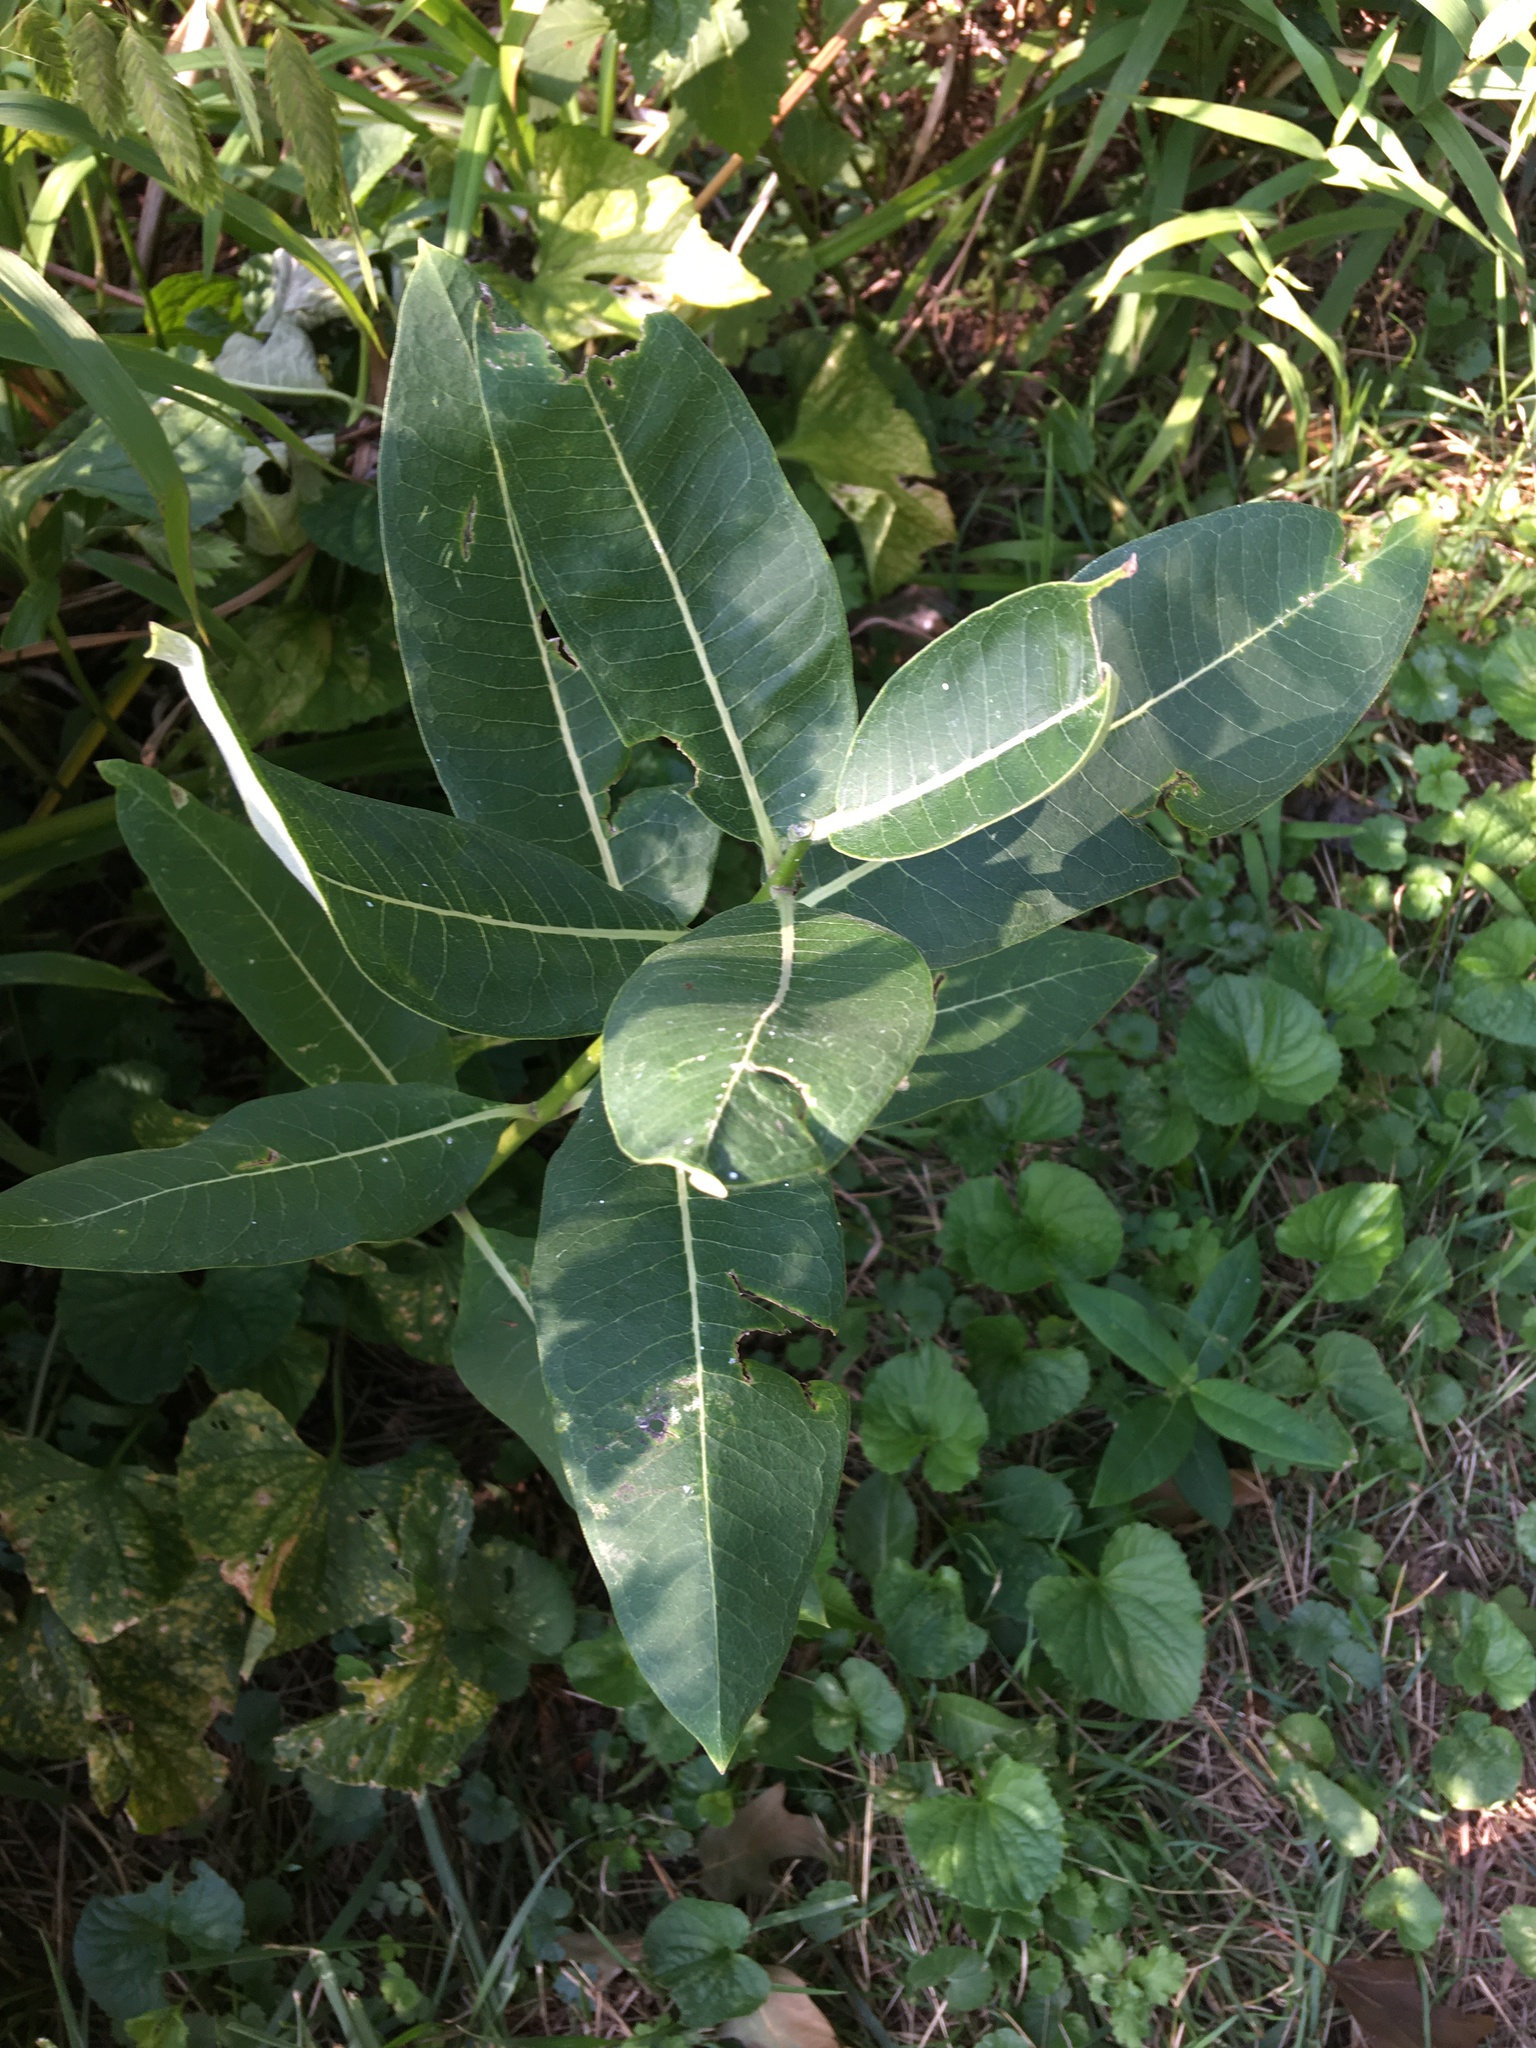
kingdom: Plantae
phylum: Tracheophyta
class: Magnoliopsida
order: Gentianales
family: Apocynaceae
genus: Asclepias
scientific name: Asclepias syriaca
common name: Common milkweed
